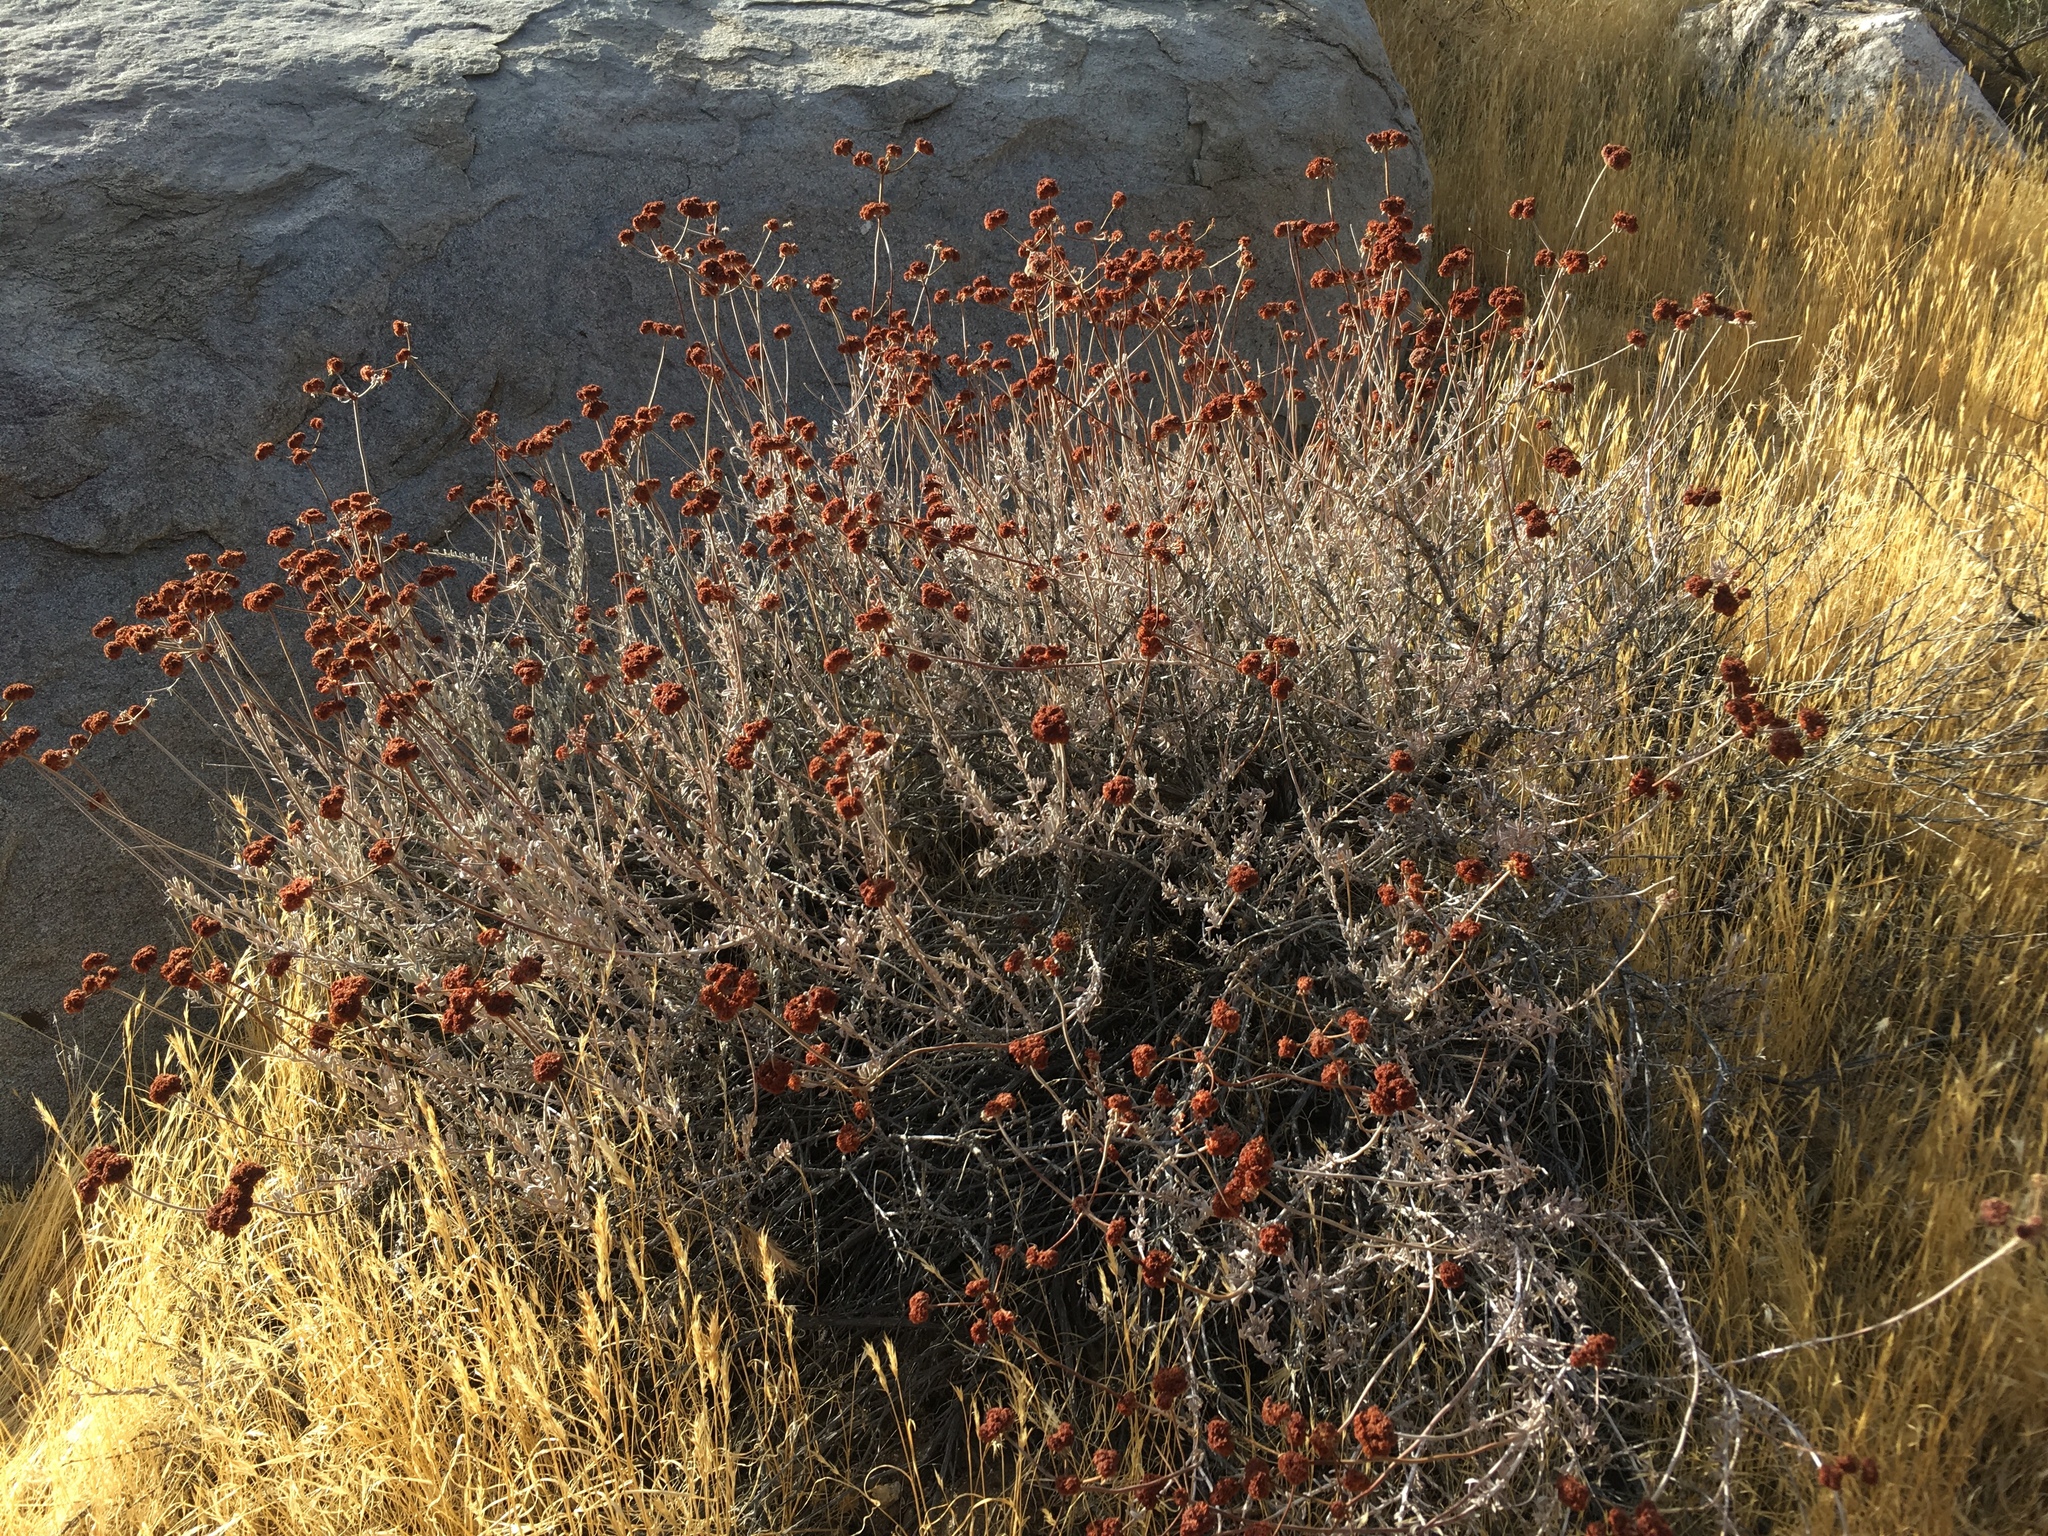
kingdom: Plantae
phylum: Tracheophyta
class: Magnoliopsida
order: Caryophyllales
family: Polygonaceae
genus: Eriogonum
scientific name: Eriogonum fasciculatum
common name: California wild buckwheat
